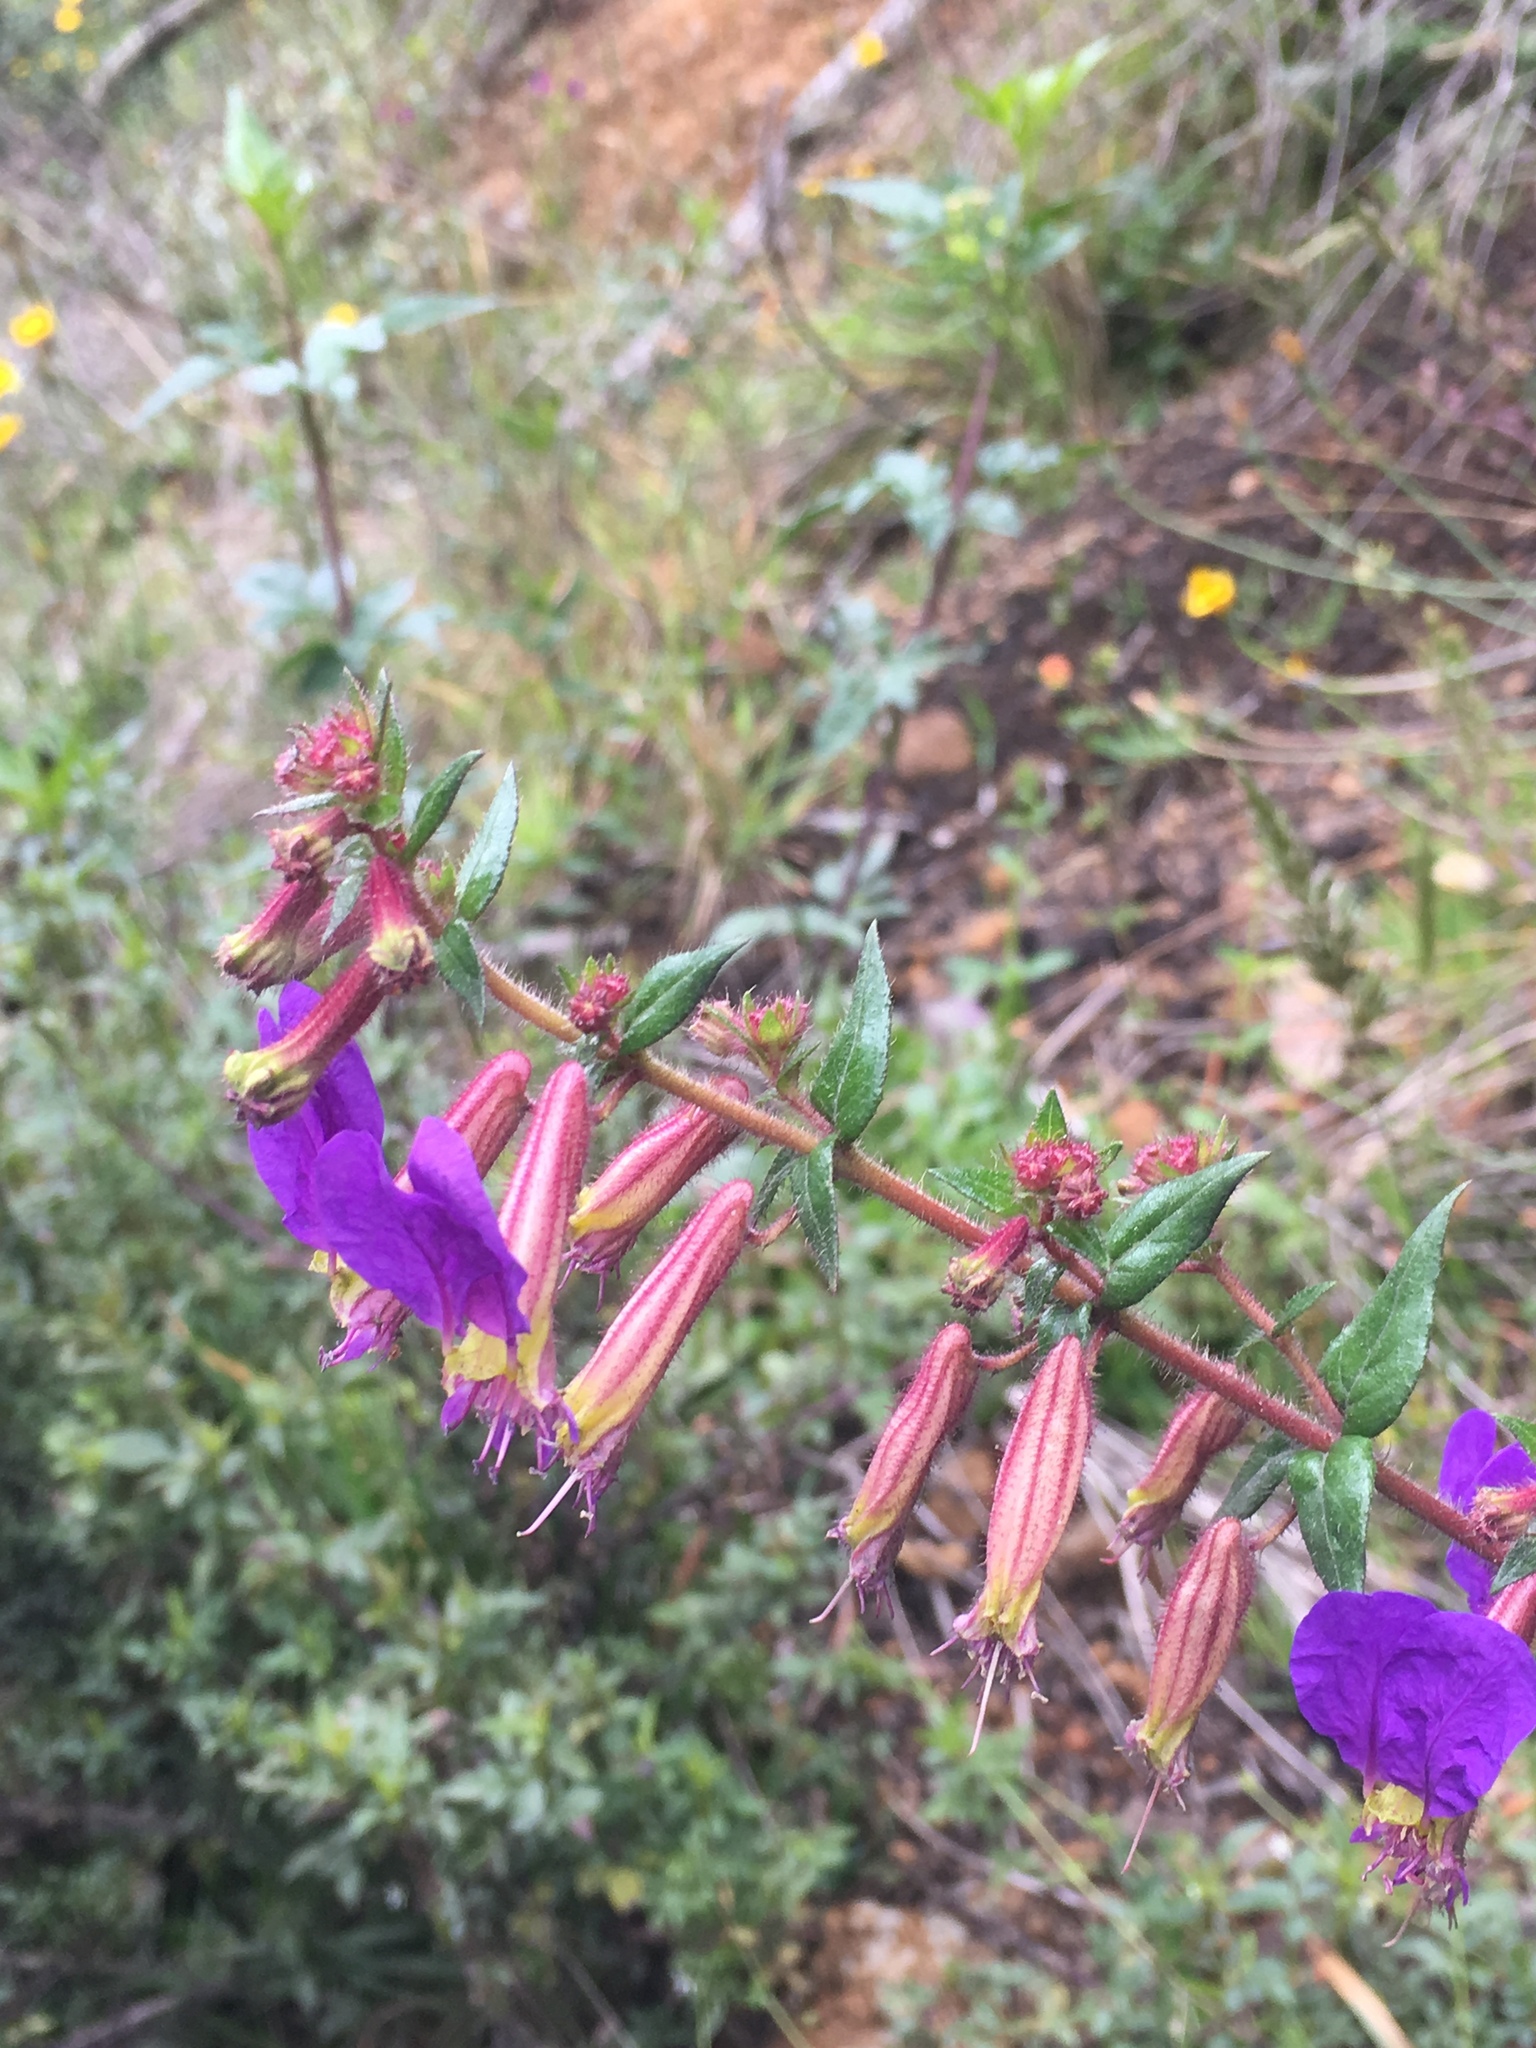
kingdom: Plantae
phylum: Tracheophyta
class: Magnoliopsida
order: Myrtales
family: Lythraceae
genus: Cuphea
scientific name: Cuphea dipetala
